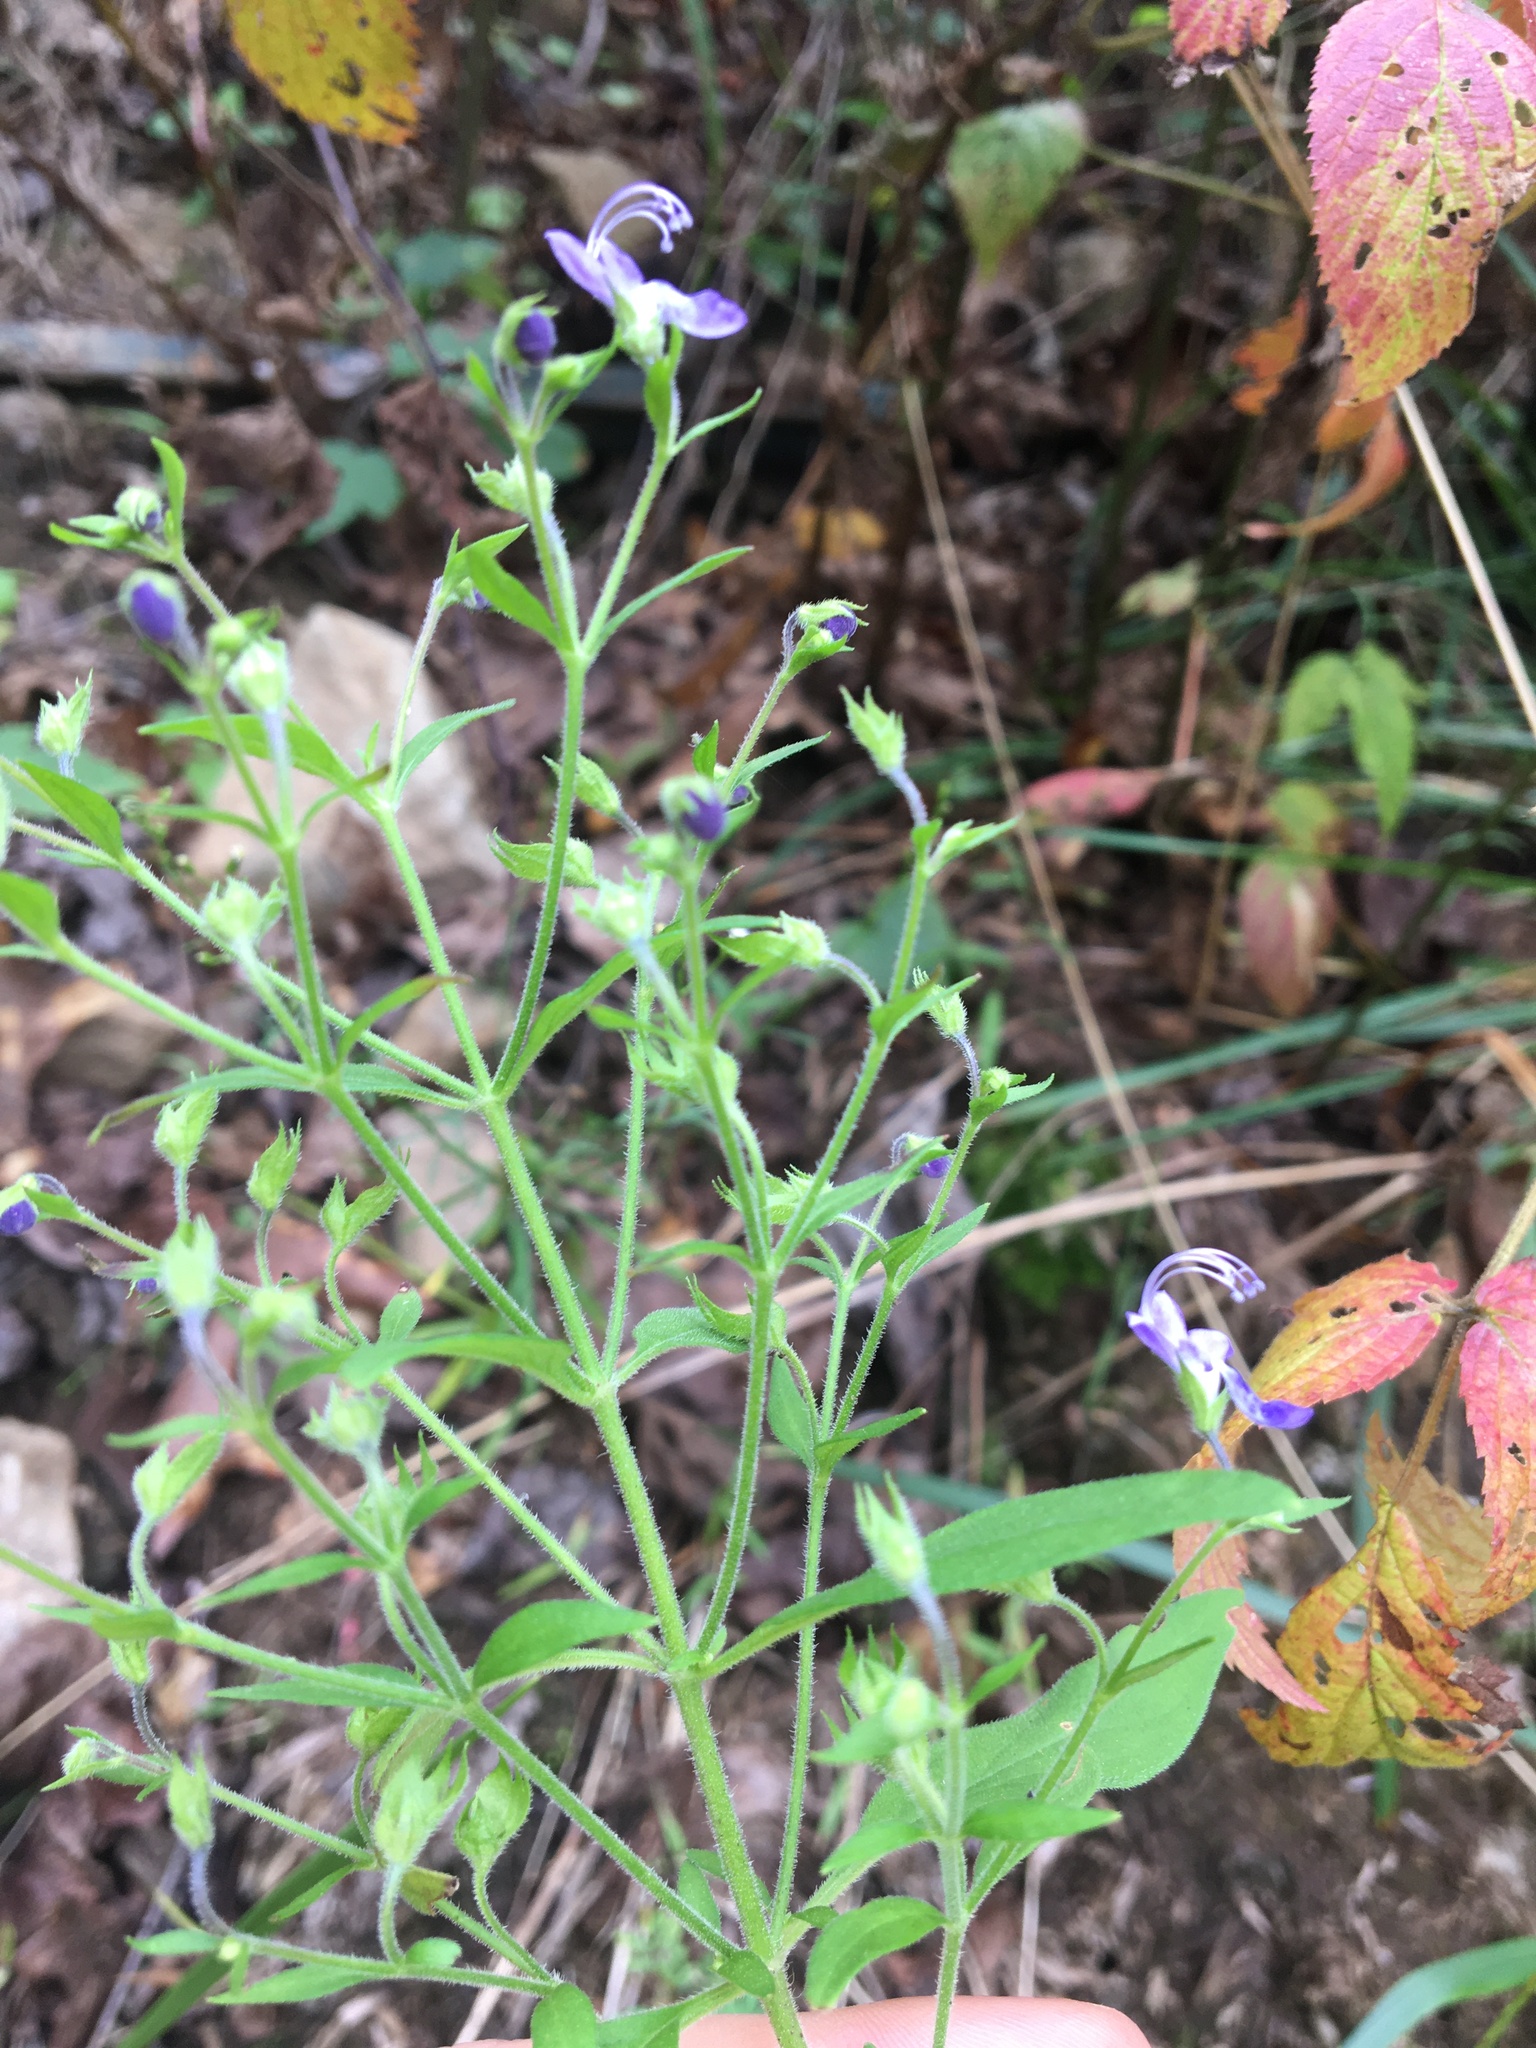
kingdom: Plantae
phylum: Tracheophyta
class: Magnoliopsida
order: Lamiales
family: Lamiaceae
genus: Trichostema
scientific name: Trichostema dichotomum
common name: Bastard pennyroyal
